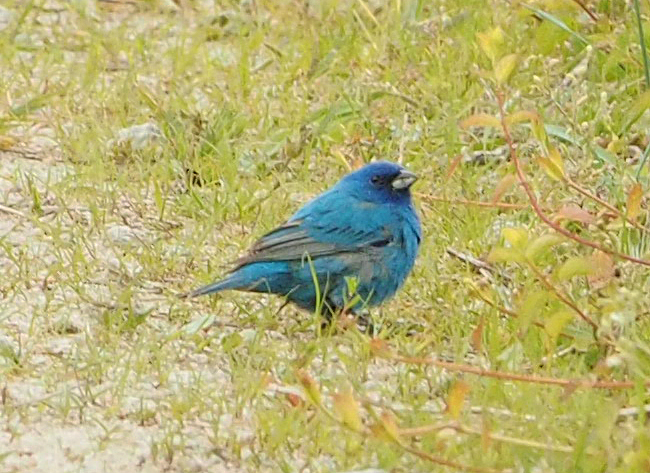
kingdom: Animalia
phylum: Chordata
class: Aves
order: Passeriformes
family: Cardinalidae
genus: Passerina
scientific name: Passerina cyanea
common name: Indigo bunting
